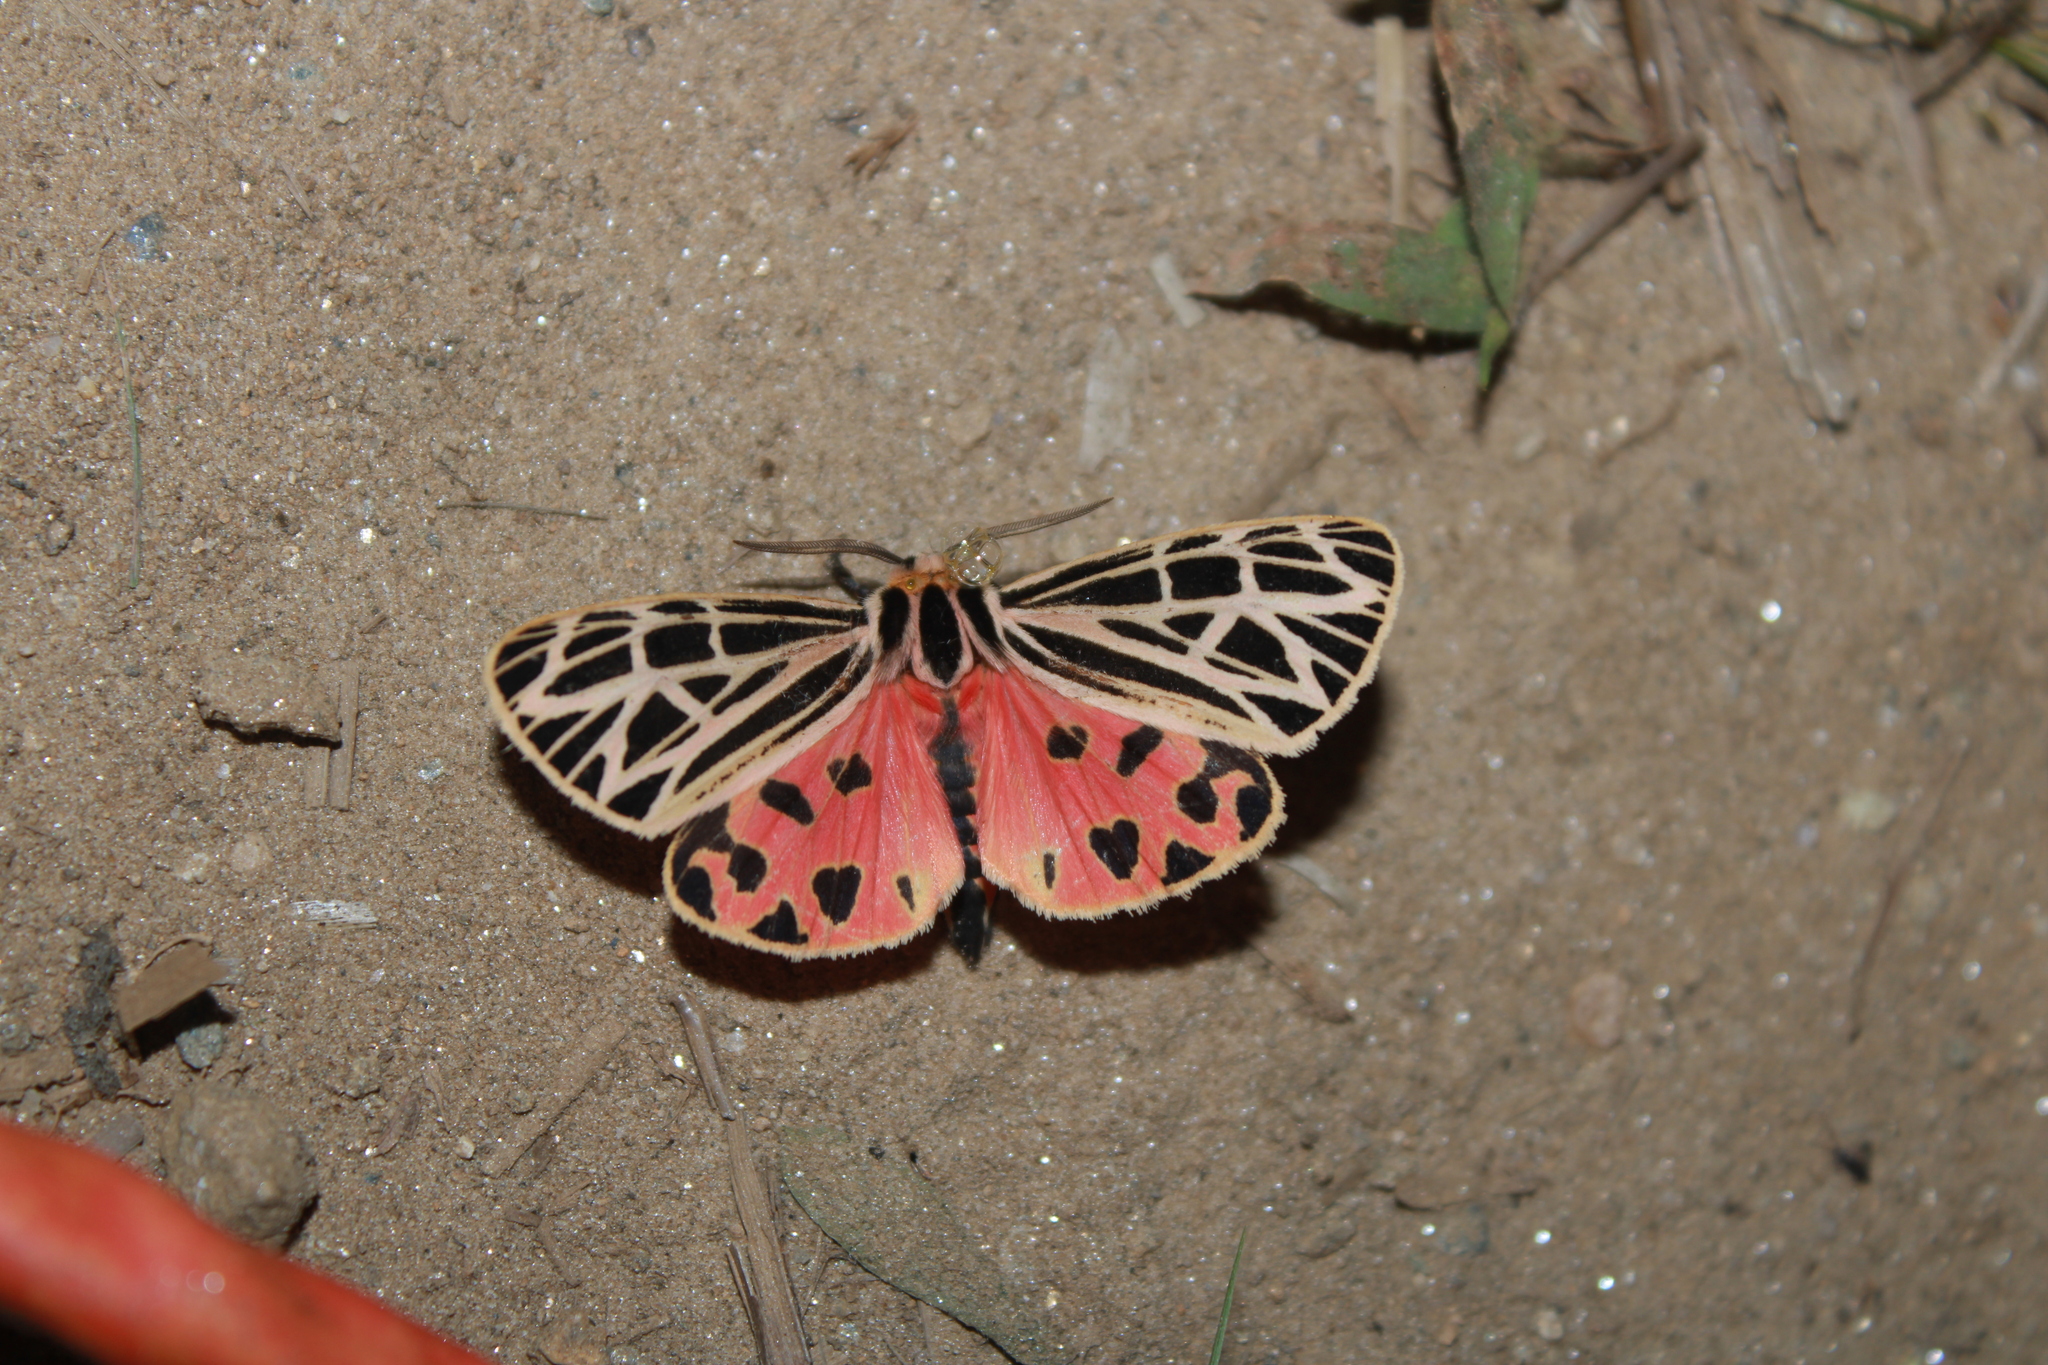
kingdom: Animalia
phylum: Arthropoda
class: Insecta
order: Lepidoptera
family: Erebidae
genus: Grammia
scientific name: Grammia virgo
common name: Virgin tiger moth
